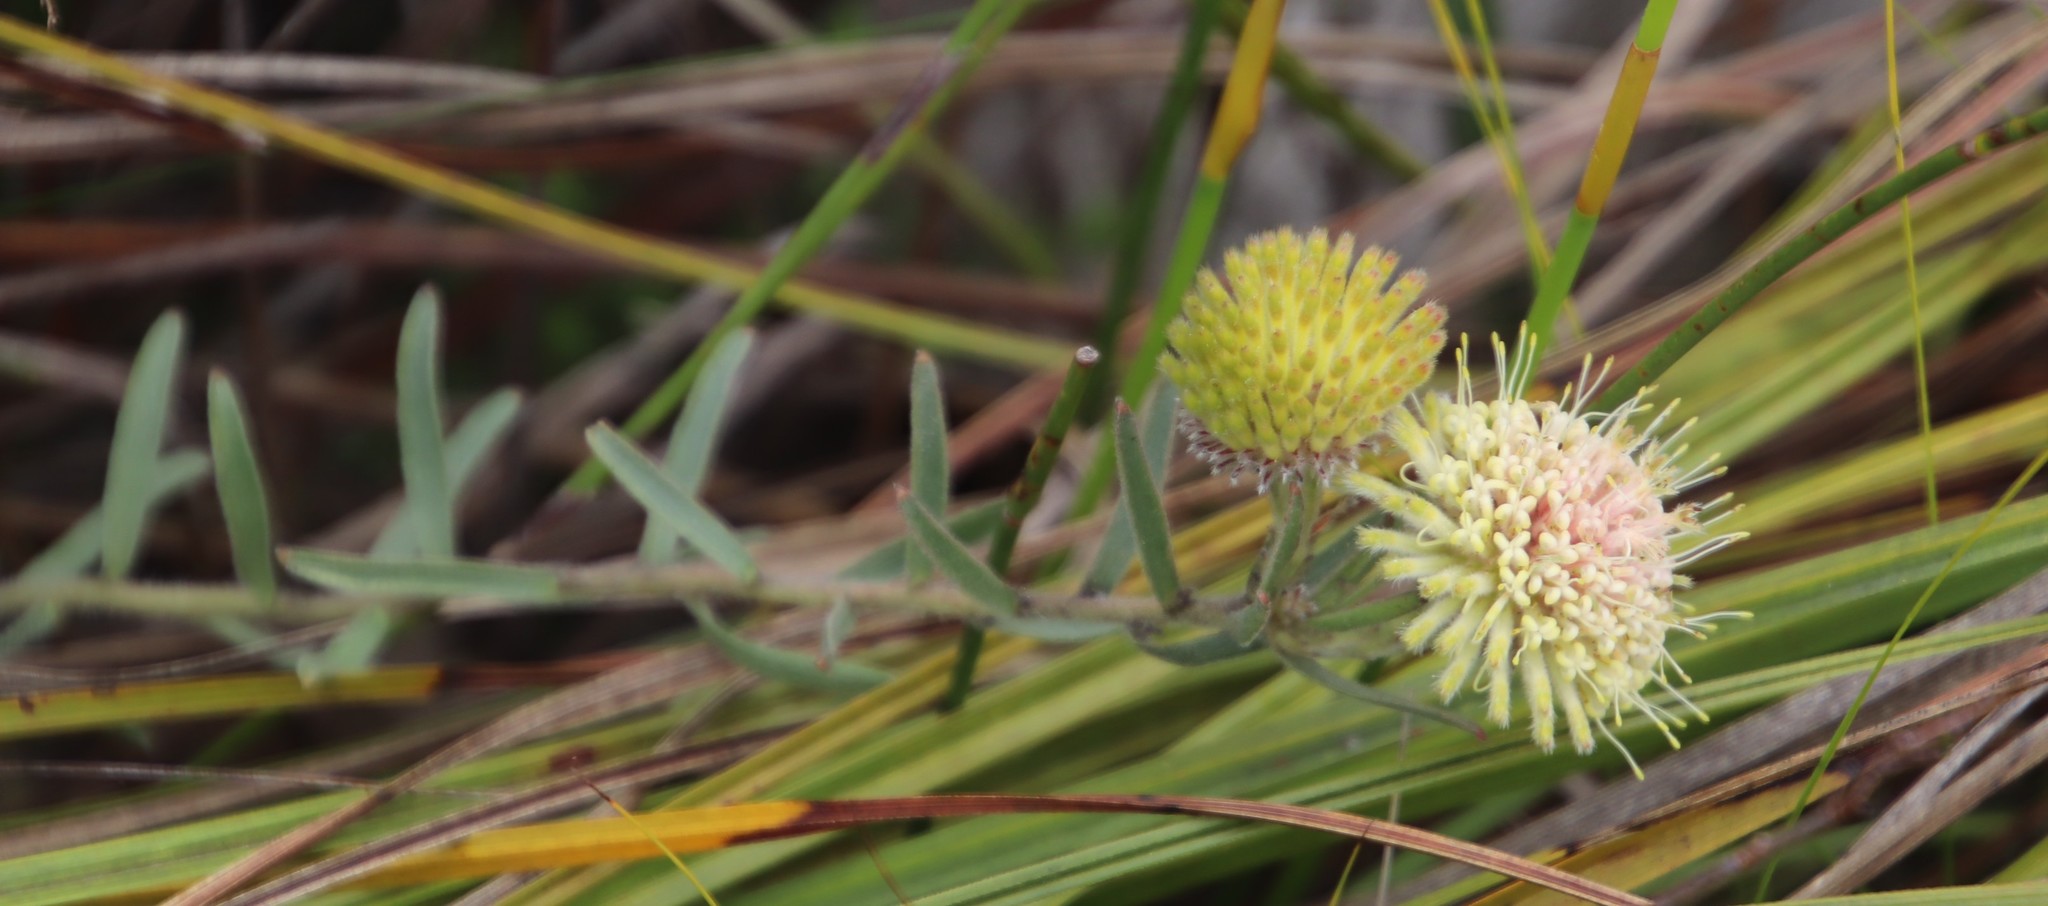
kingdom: Plantae
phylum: Tracheophyta
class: Magnoliopsida
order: Proteales
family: Proteaceae
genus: Leucospermum
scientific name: Leucospermum pedunculatum
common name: White-trailing pincushion
